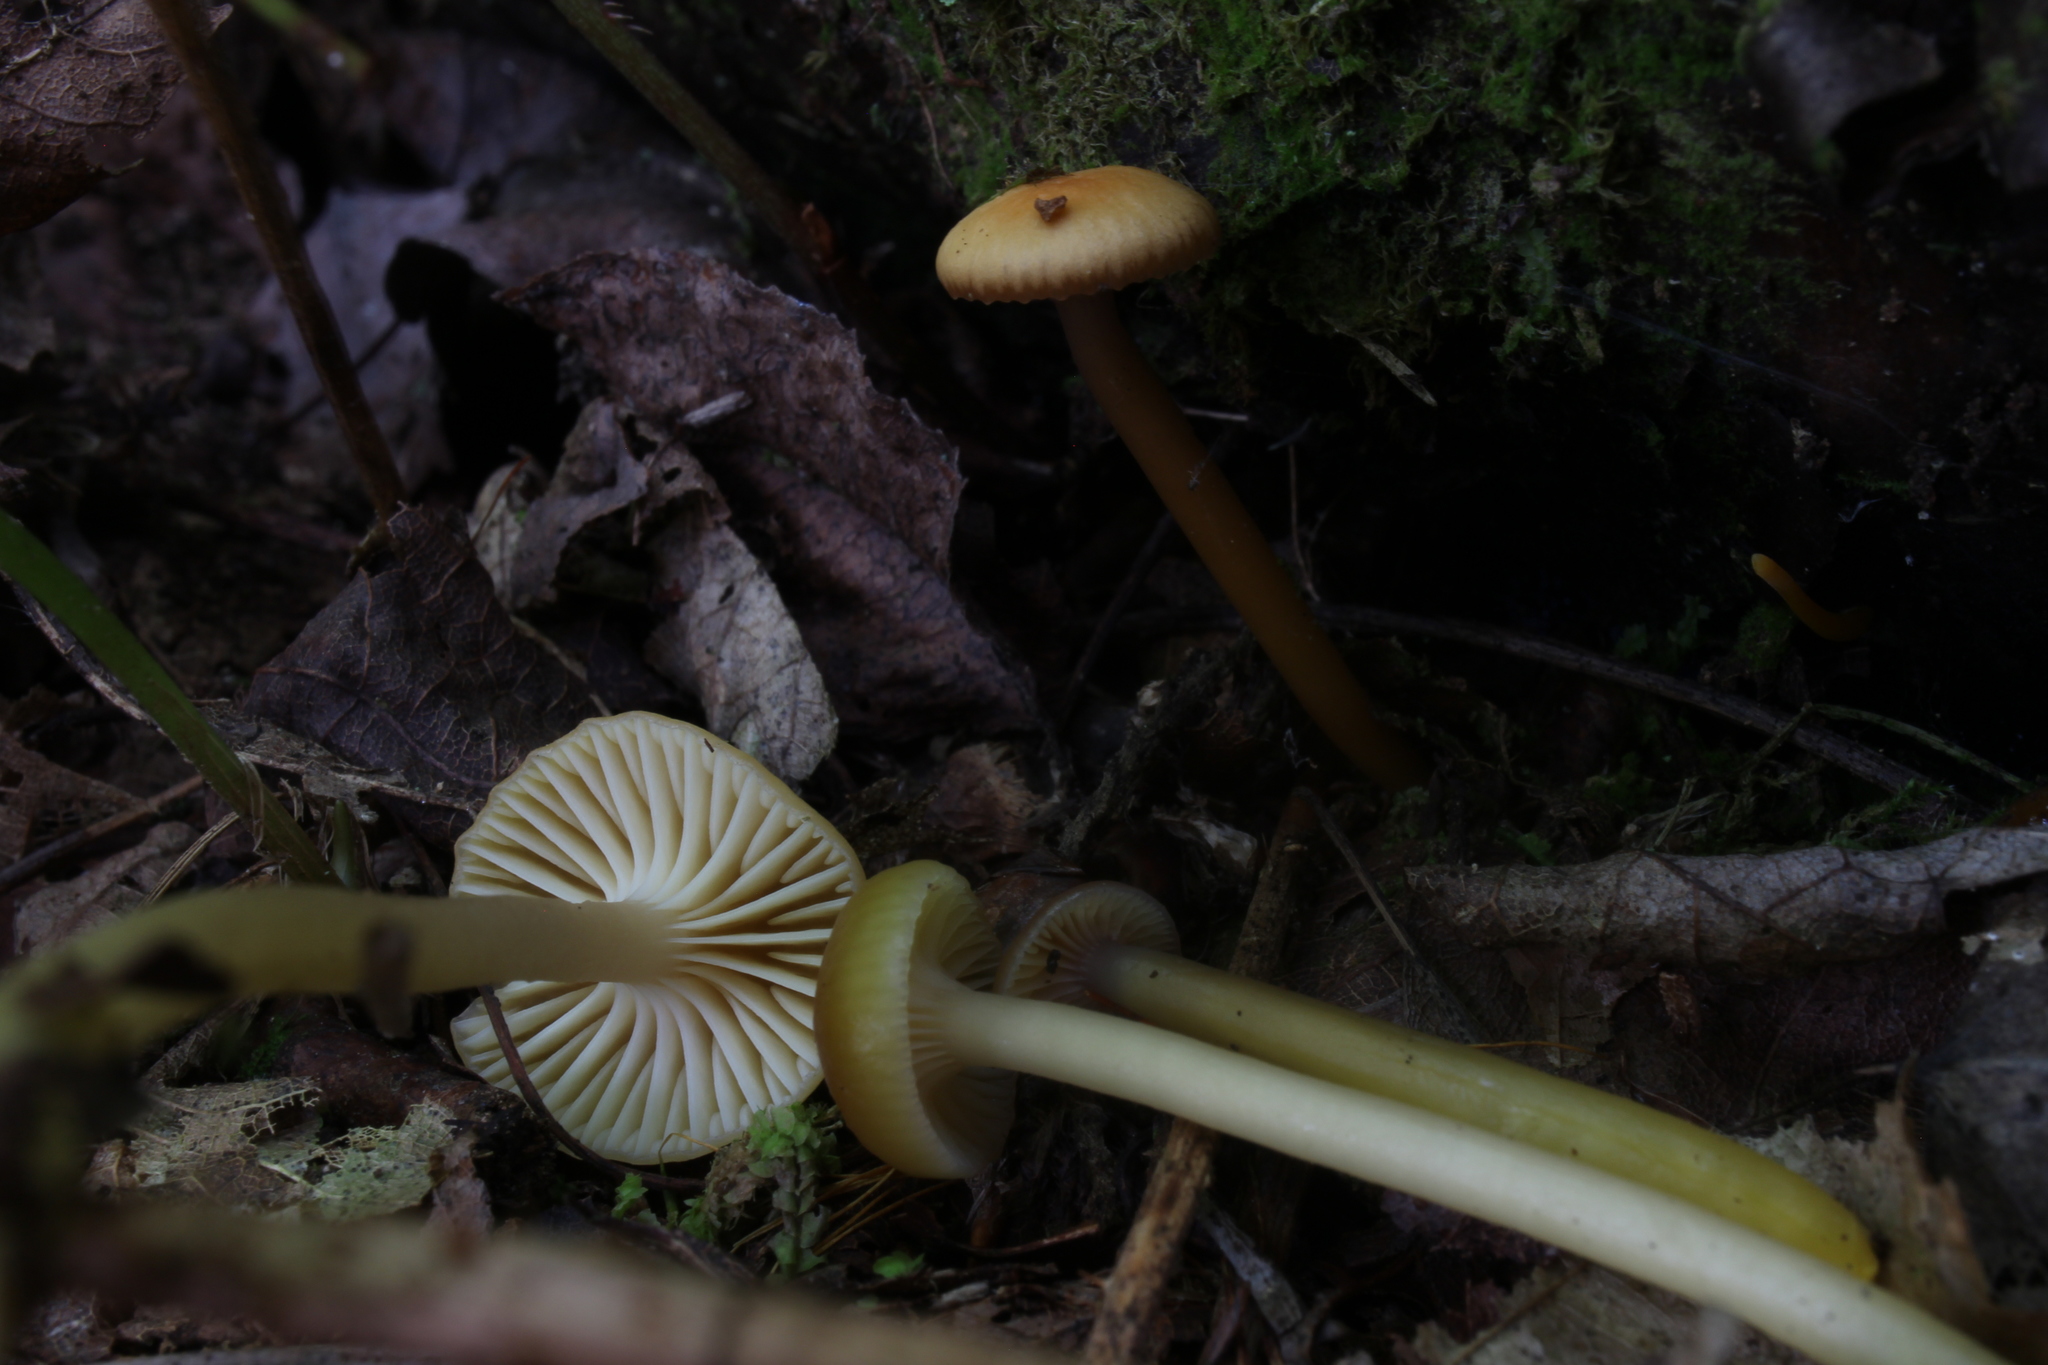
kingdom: Fungi
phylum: Basidiomycota
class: Agaricomycetes
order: Agaricales
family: Hygrophoraceae
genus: Gliophorus
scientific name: Gliophorus laetus
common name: Heath waxcap
